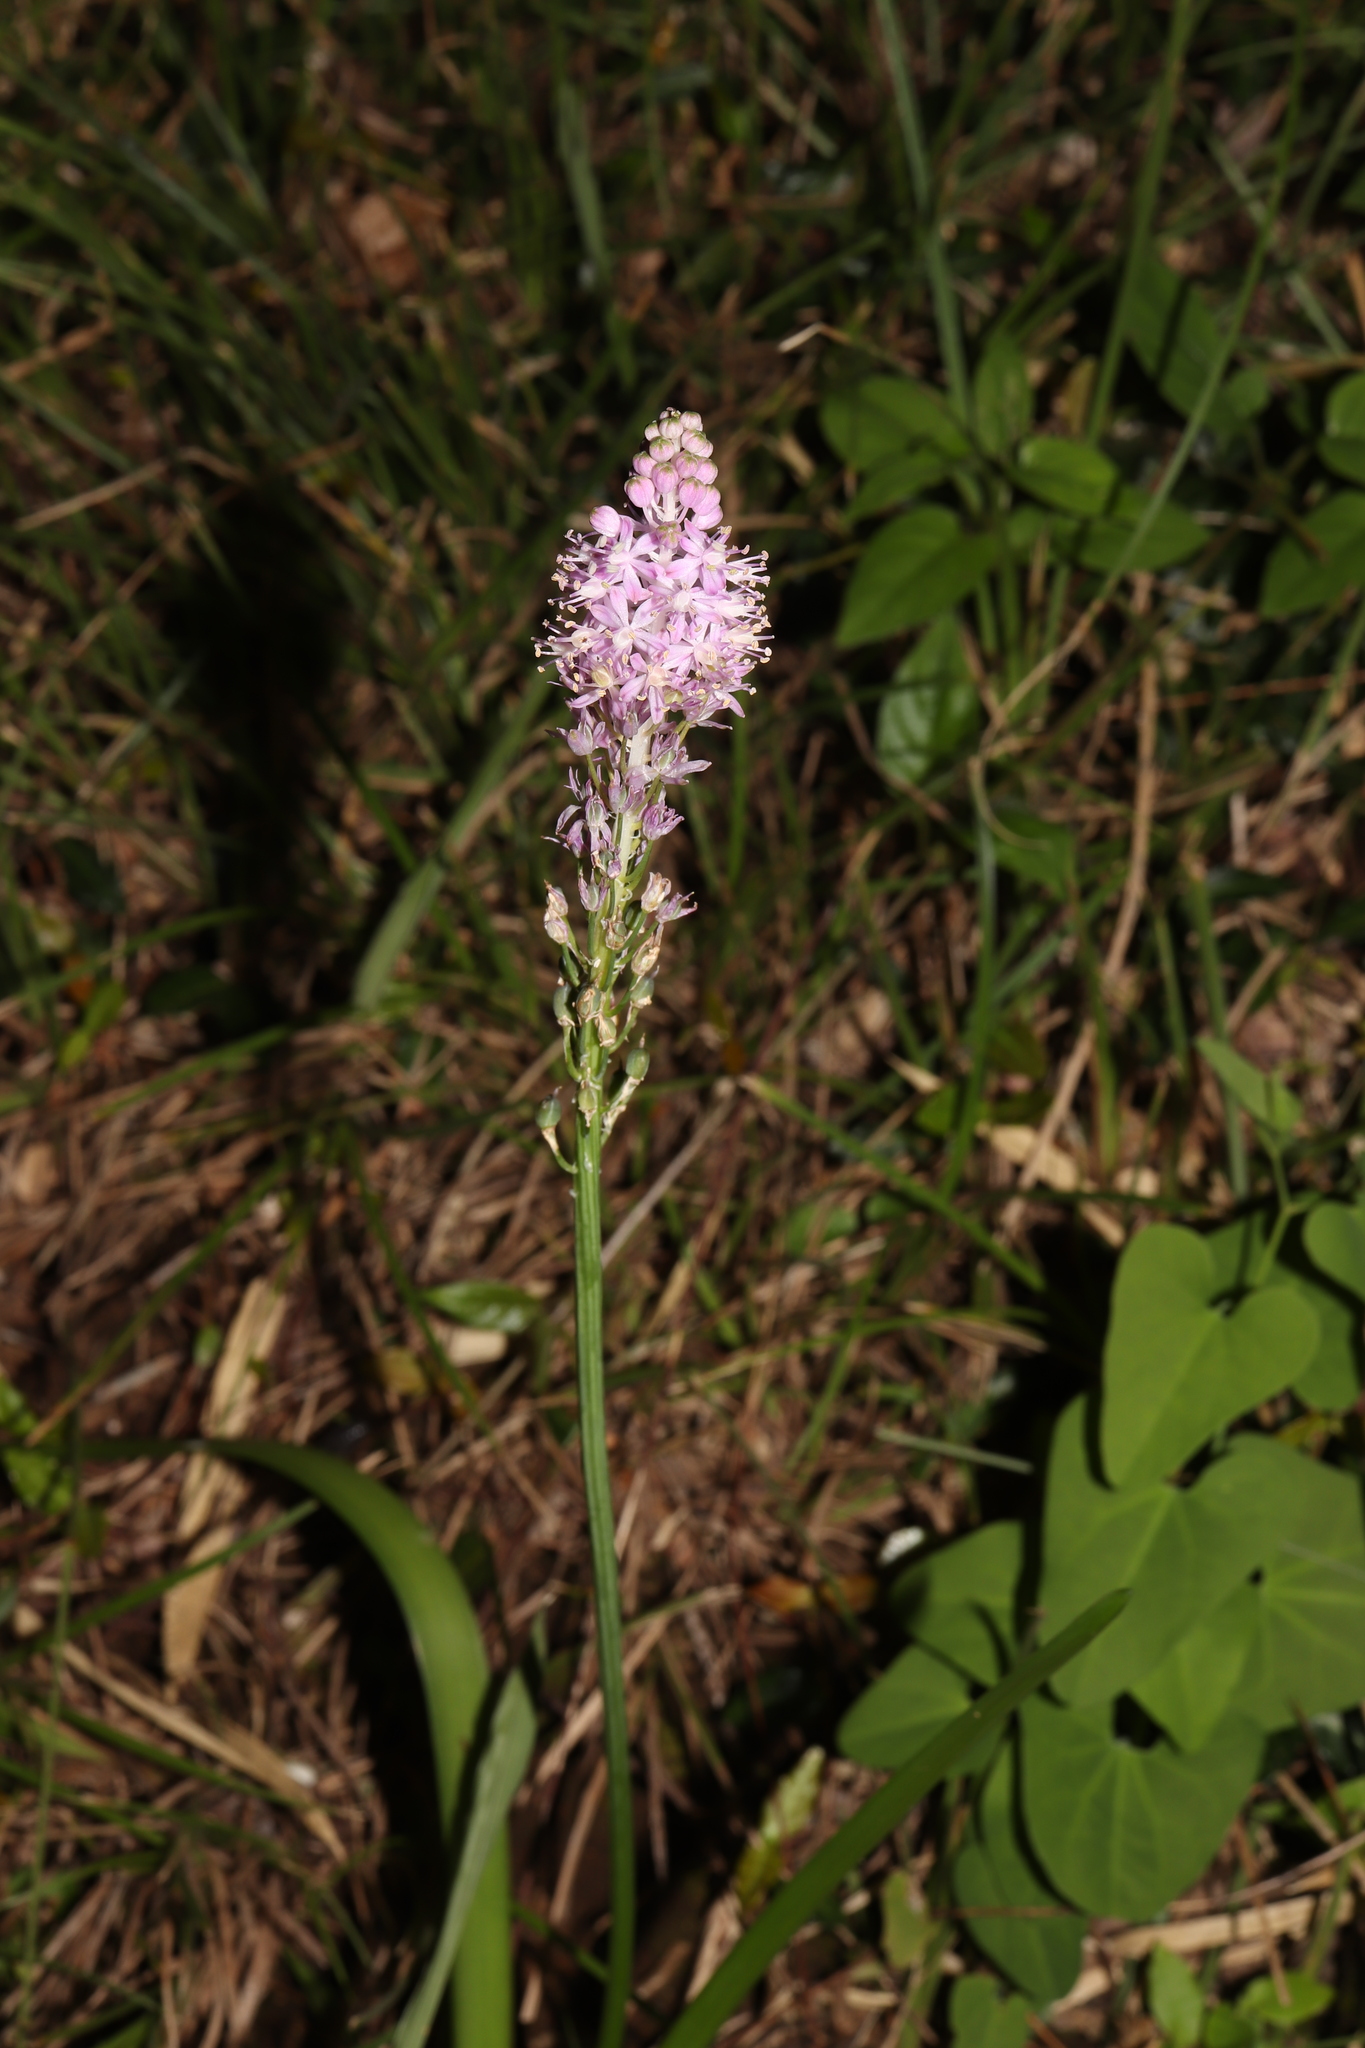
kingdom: Plantae
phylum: Tracheophyta
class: Liliopsida
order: Asparagales
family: Asparagaceae
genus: Barnardia
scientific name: Barnardia japonica
